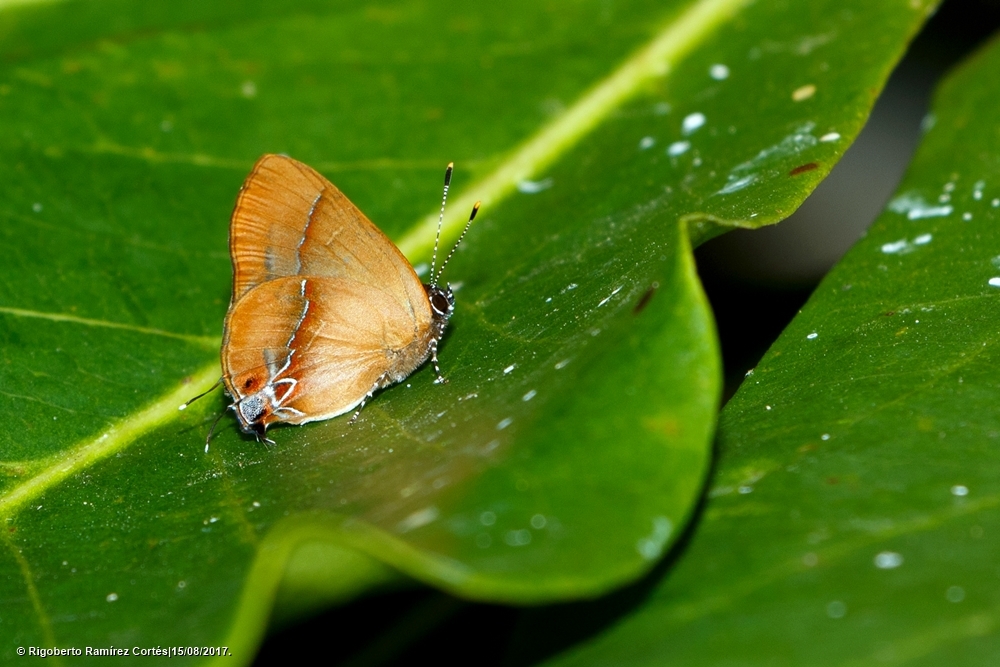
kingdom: Animalia
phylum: Arthropoda
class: Insecta
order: Lepidoptera
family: Lycaenidae
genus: Thecla
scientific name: Thecla demonassa
